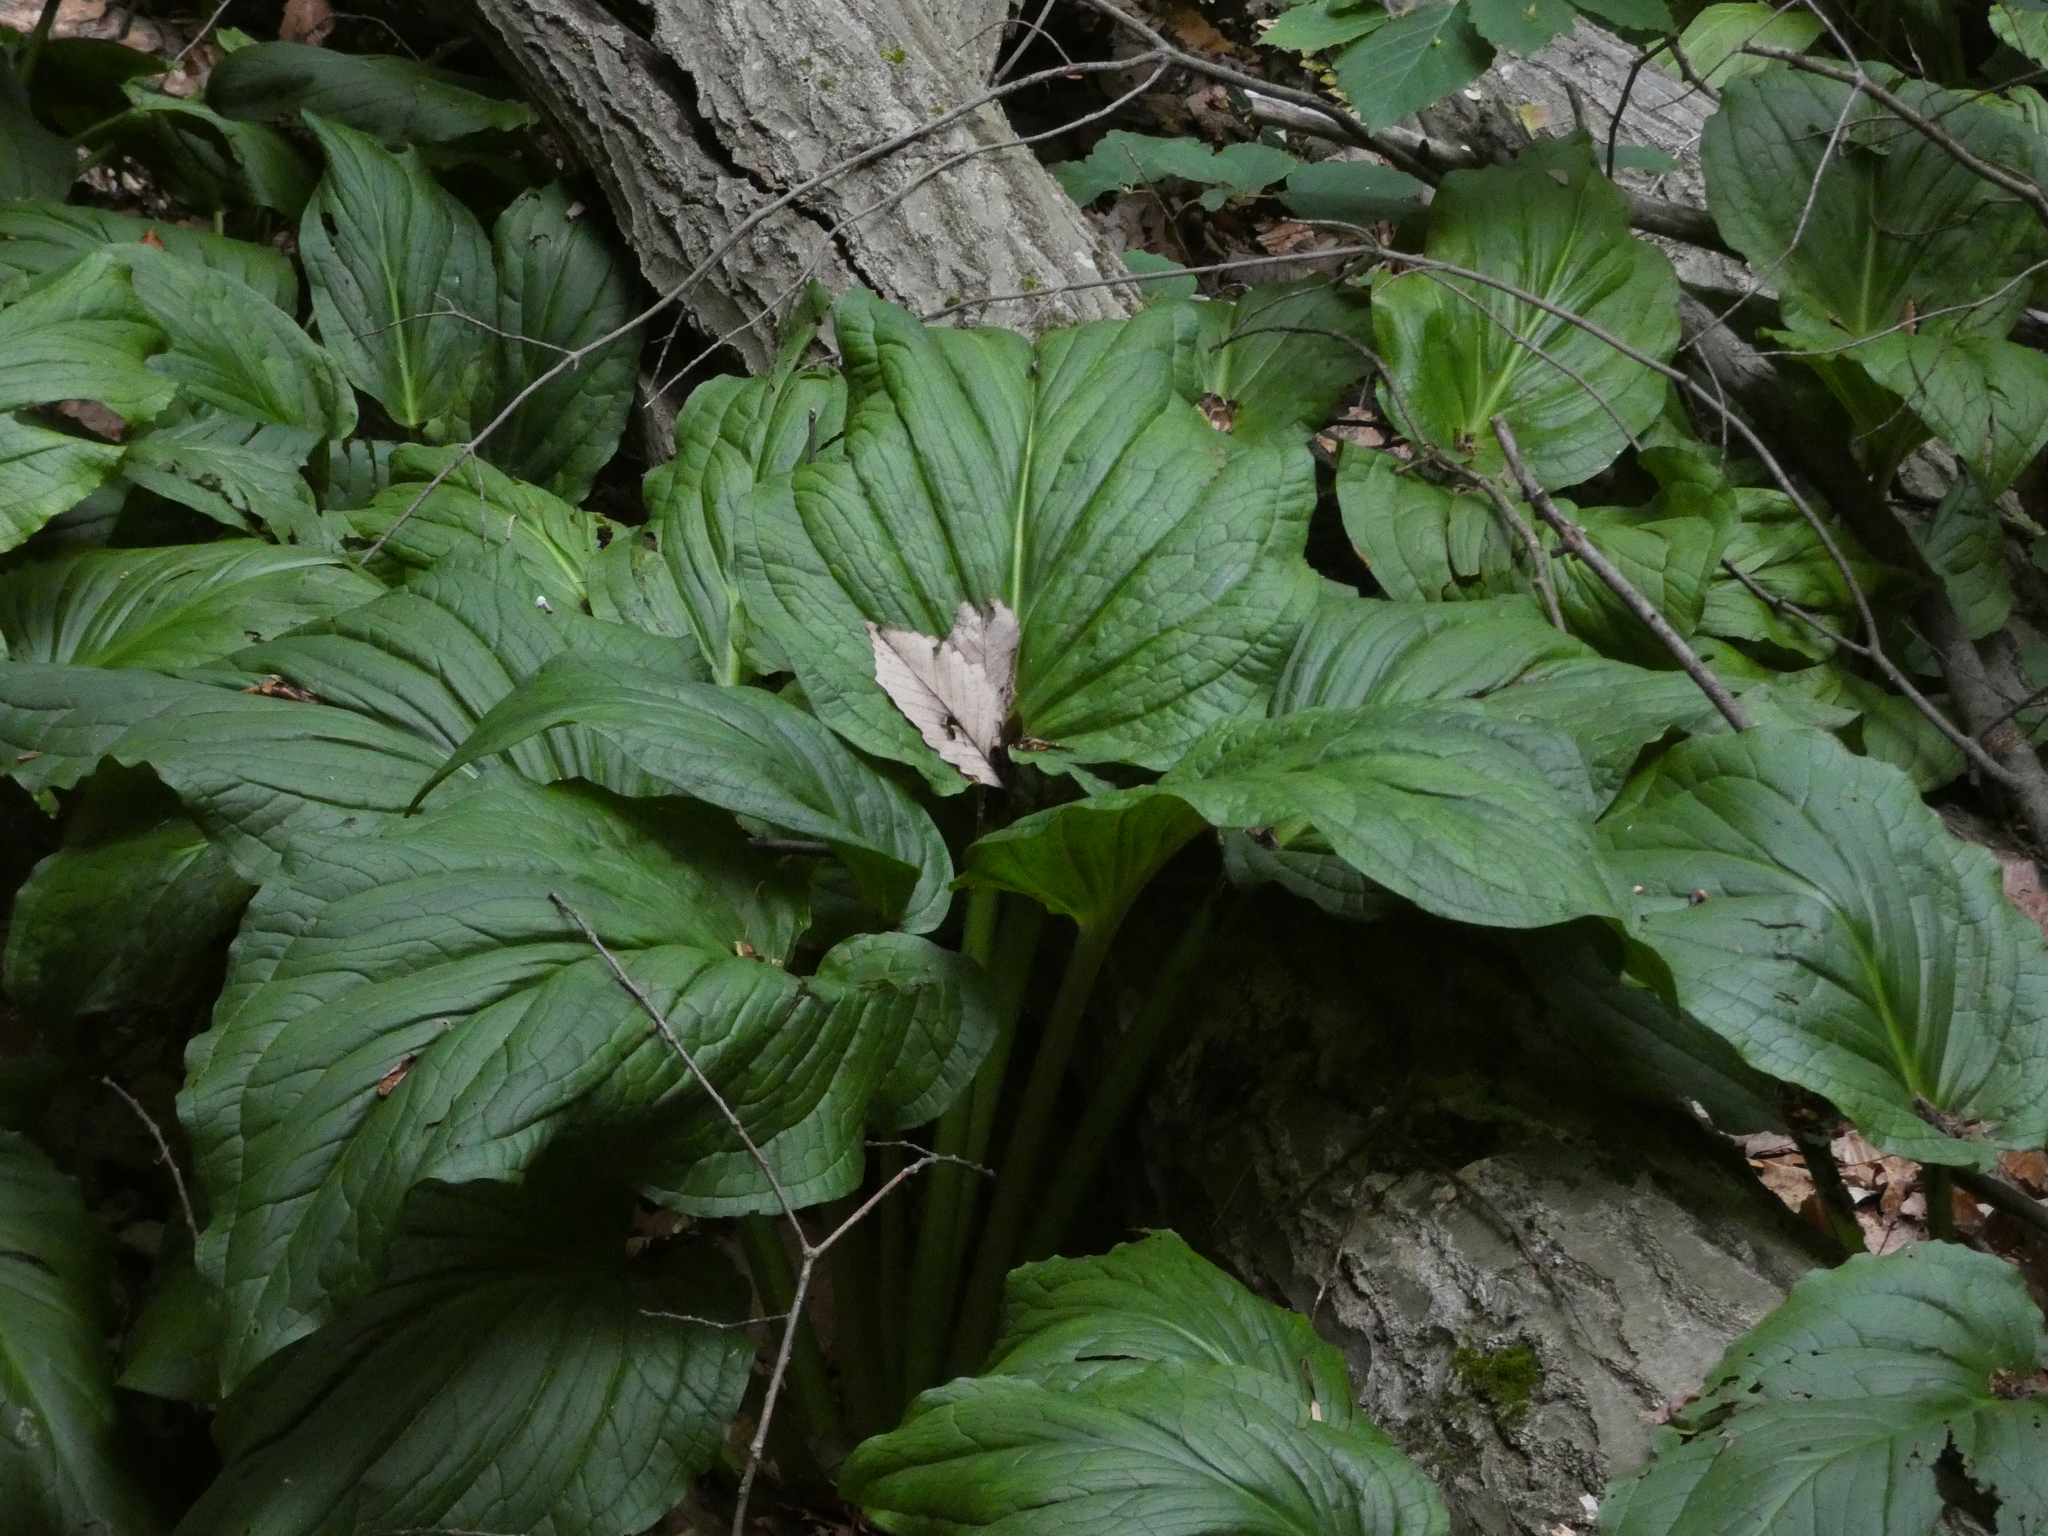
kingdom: Plantae
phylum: Tracheophyta
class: Liliopsida
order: Alismatales
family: Araceae
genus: Symplocarpus
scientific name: Symplocarpus foetidus
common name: Eastern skunk cabbage
